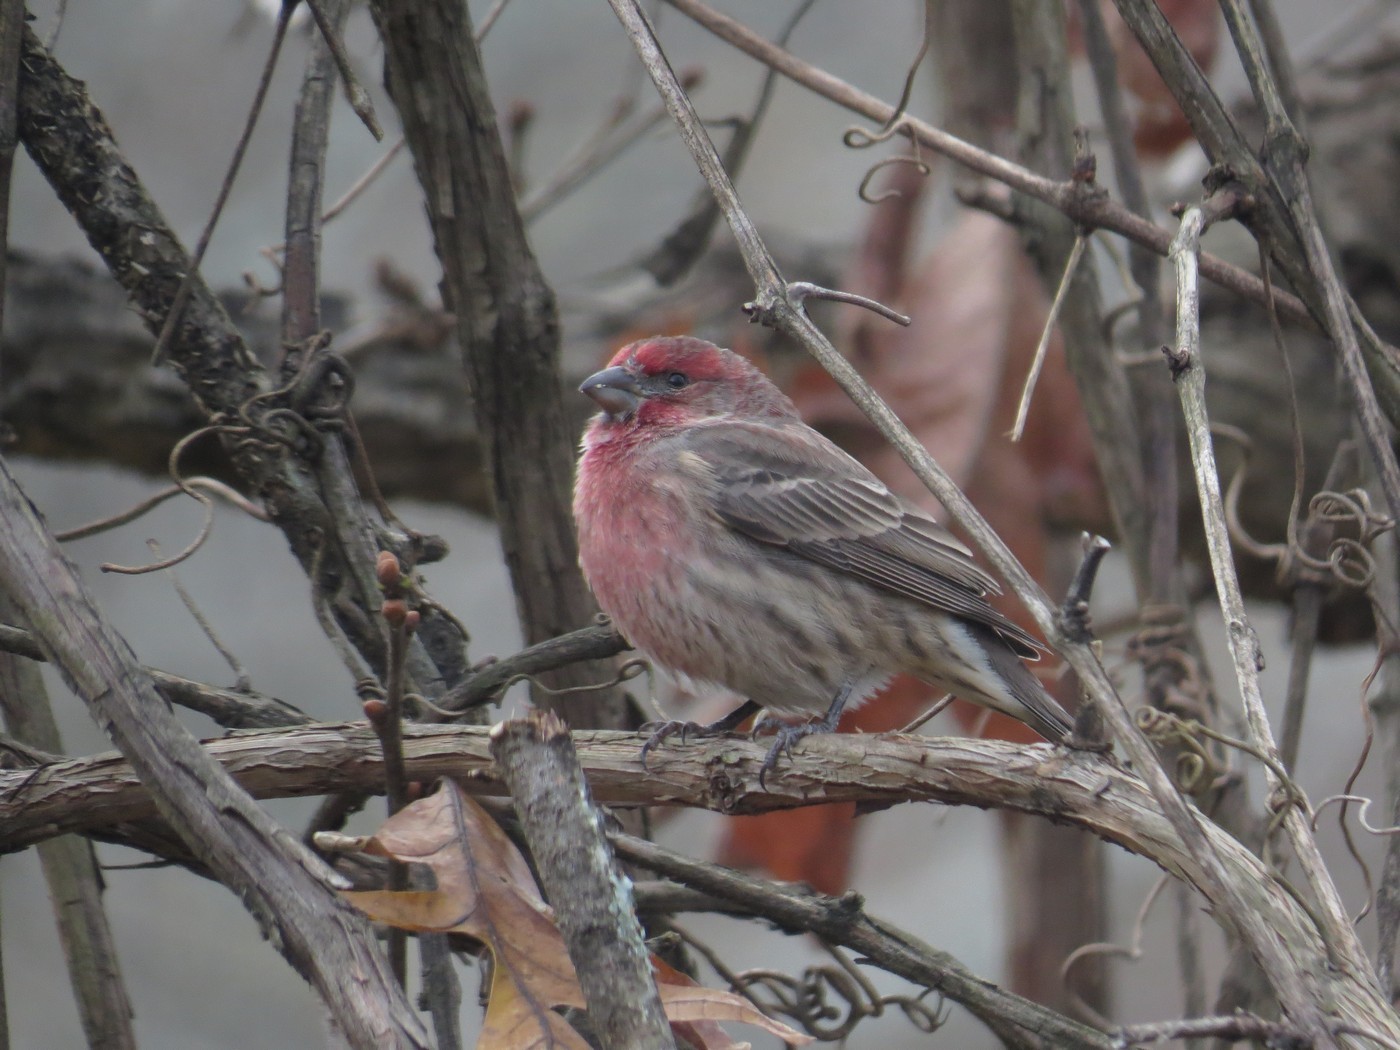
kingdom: Animalia
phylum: Chordata
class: Aves
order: Passeriformes
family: Fringillidae
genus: Haemorhous
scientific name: Haemorhous mexicanus
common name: House finch
